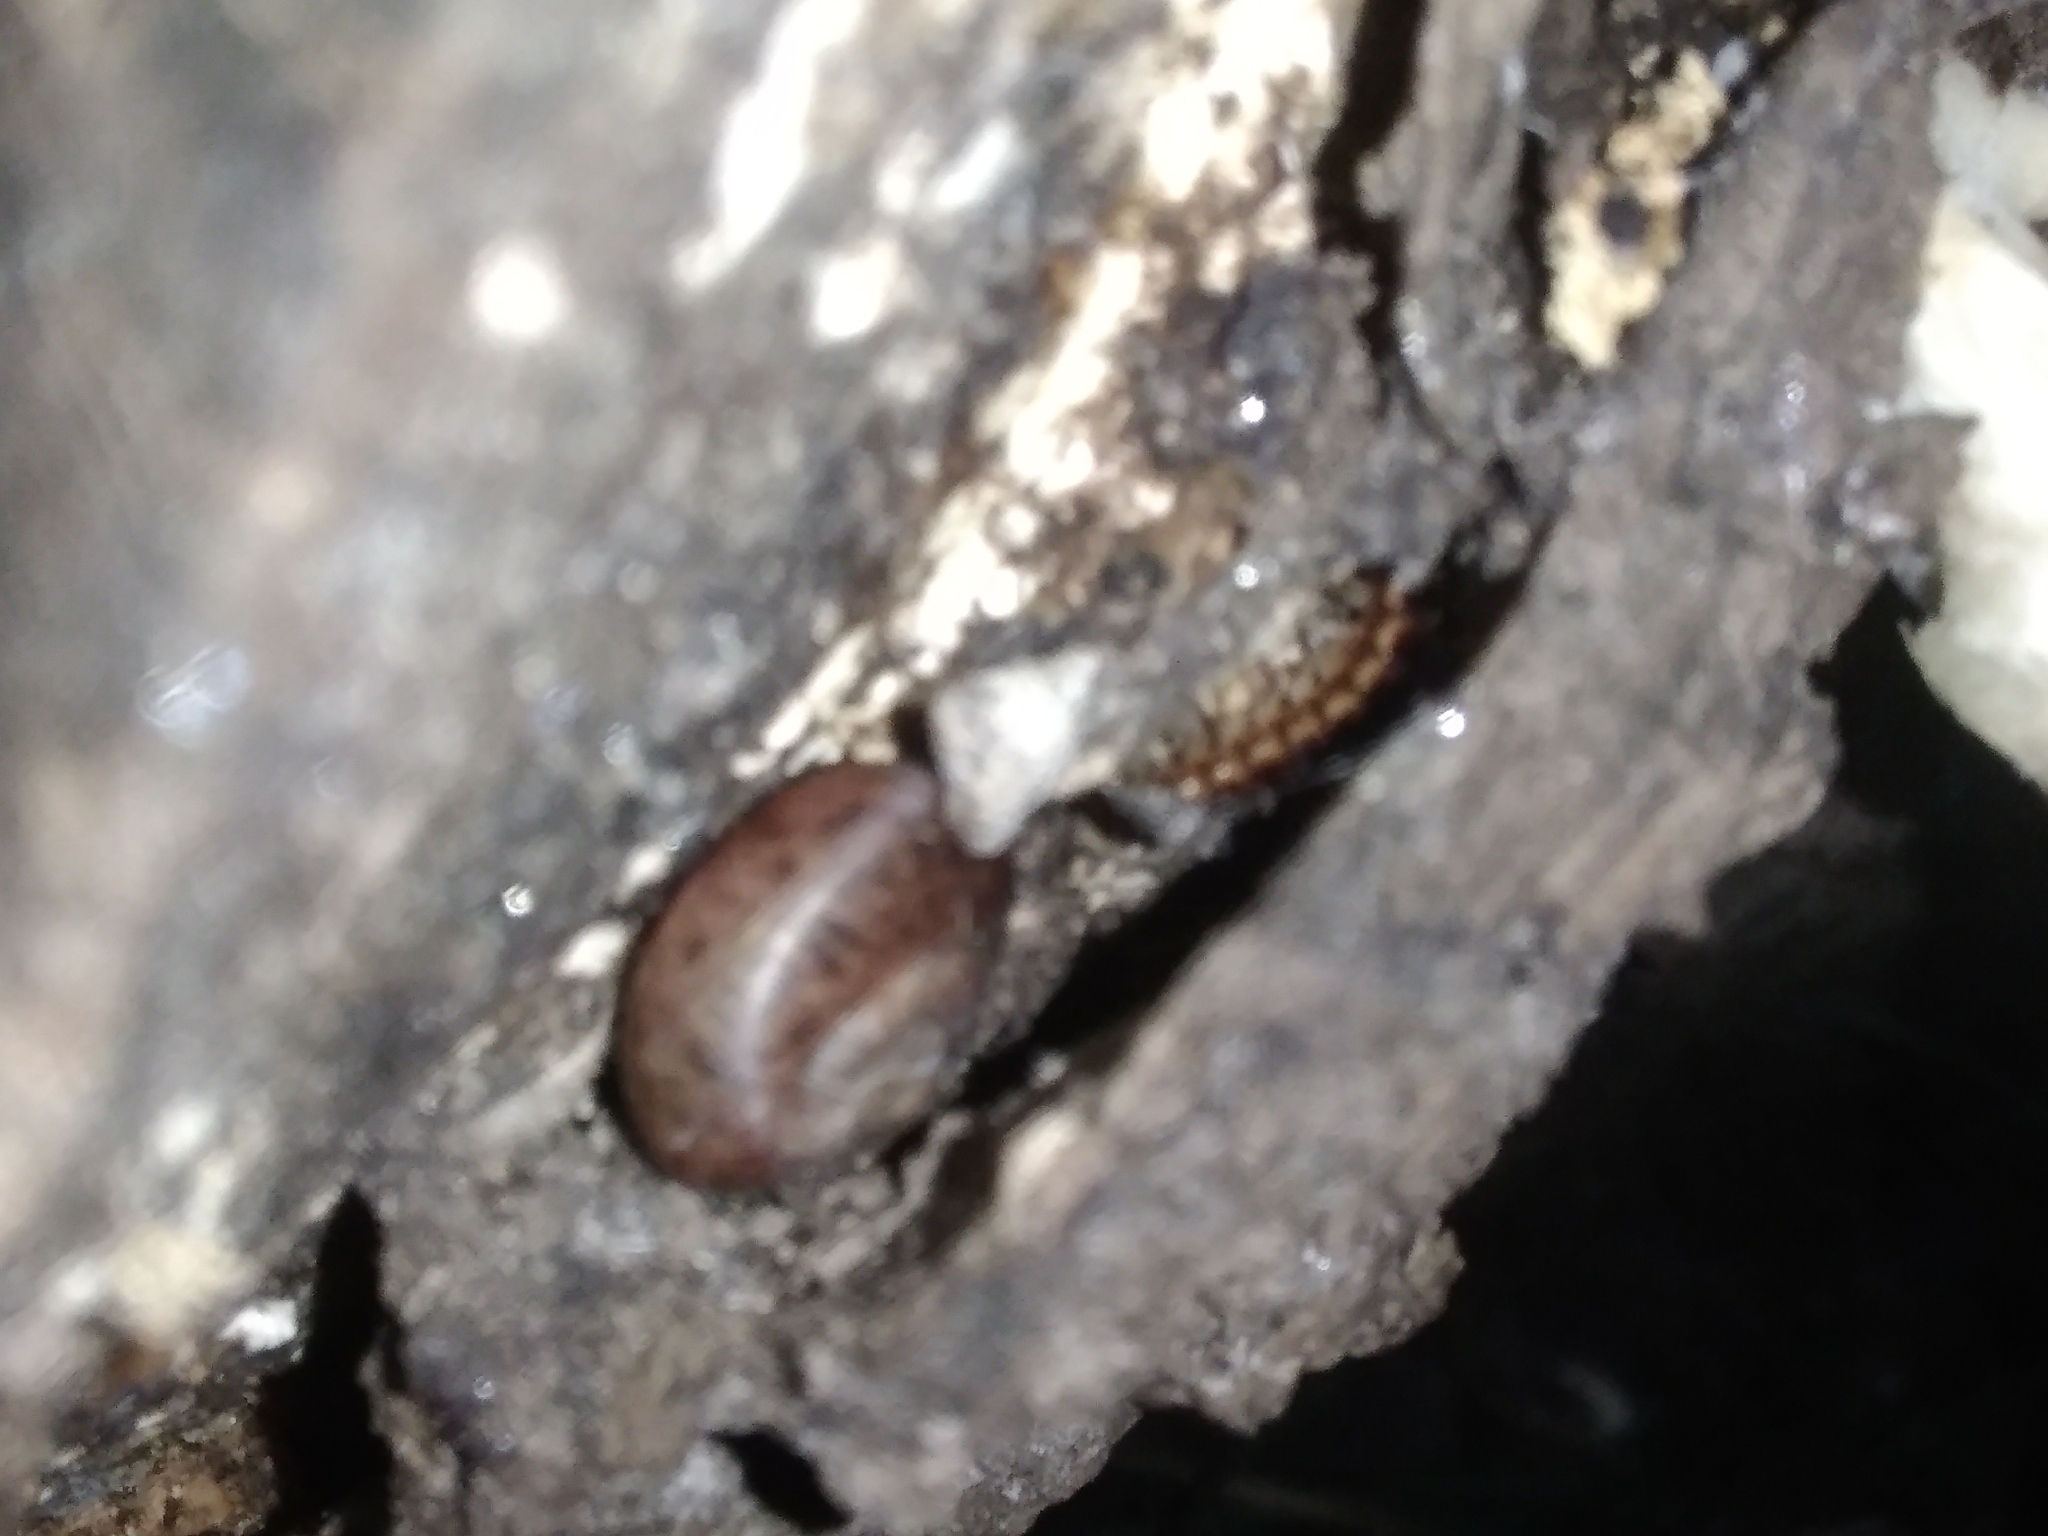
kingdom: Animalia
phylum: Arthropoda
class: Diplopoda
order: Polydesmida
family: Paradoxosomatidae
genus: Oxidus
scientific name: Oxidus gracilis
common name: Greenhouse millipede
